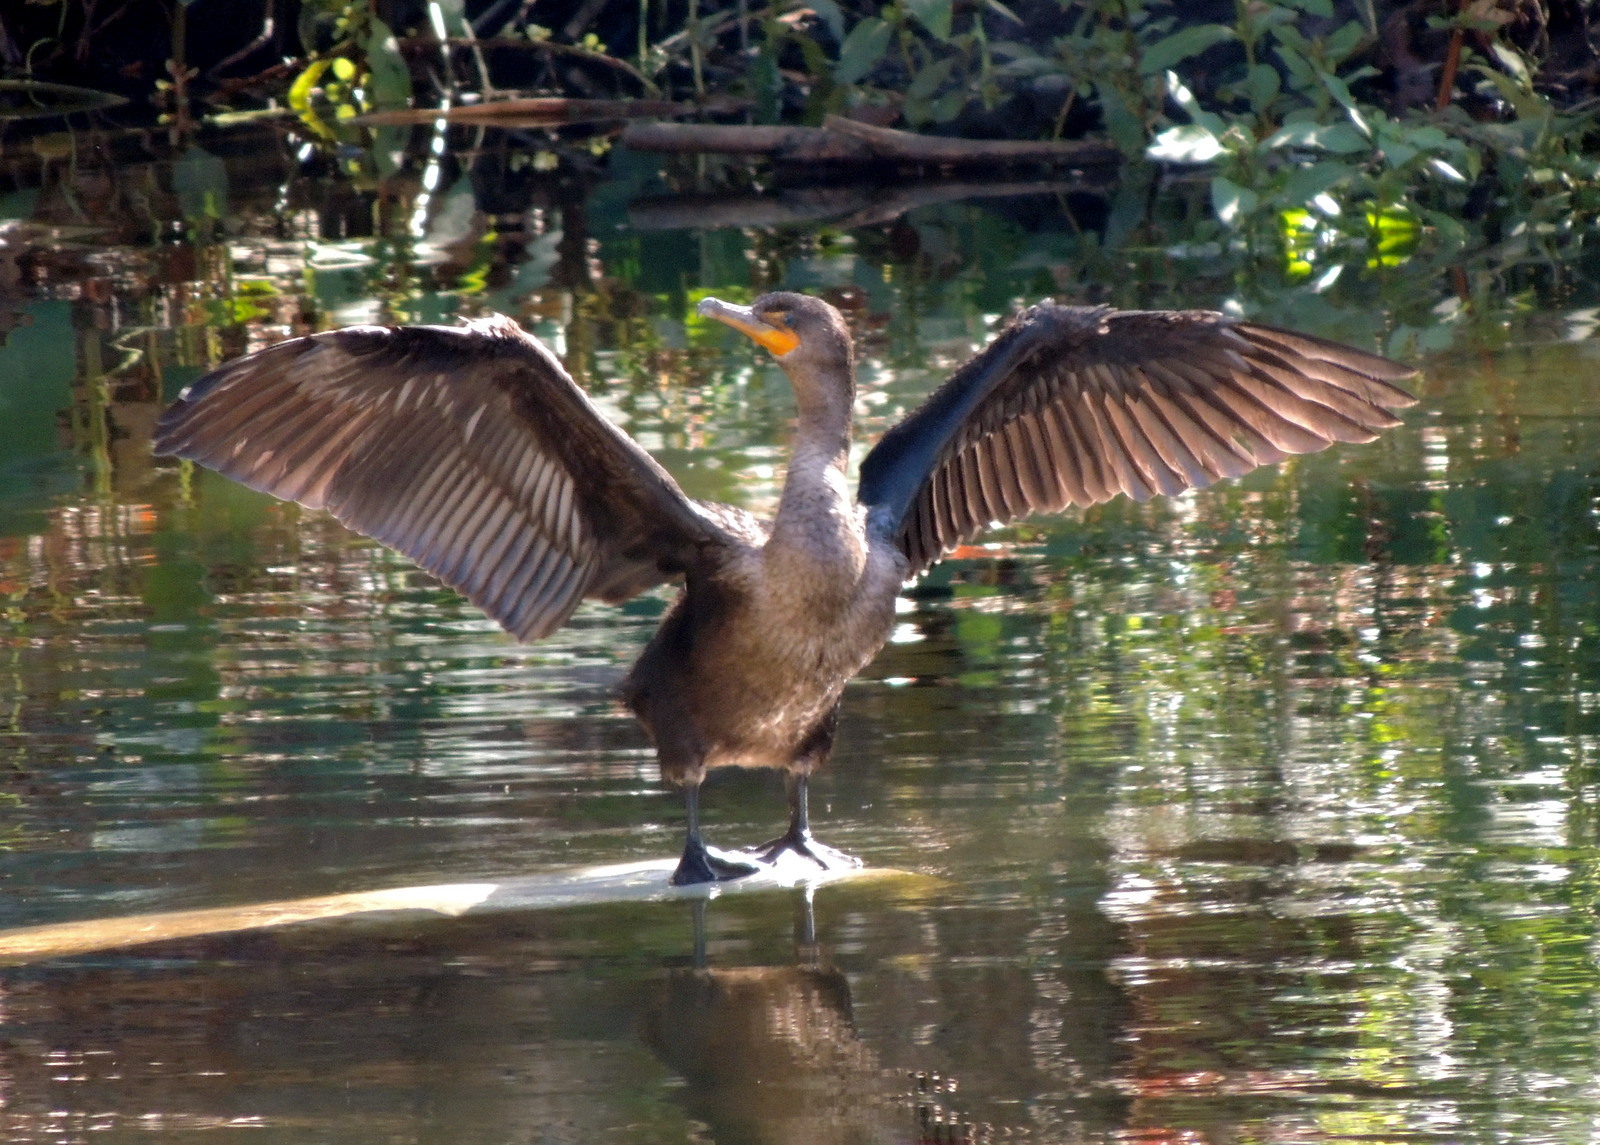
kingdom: Animalia
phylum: Chordata
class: Aves
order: Suliformes
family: Phalacrocoracidae
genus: Phalacrocorax
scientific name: Phalacrocorax auritus
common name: Double-crested cormorant
